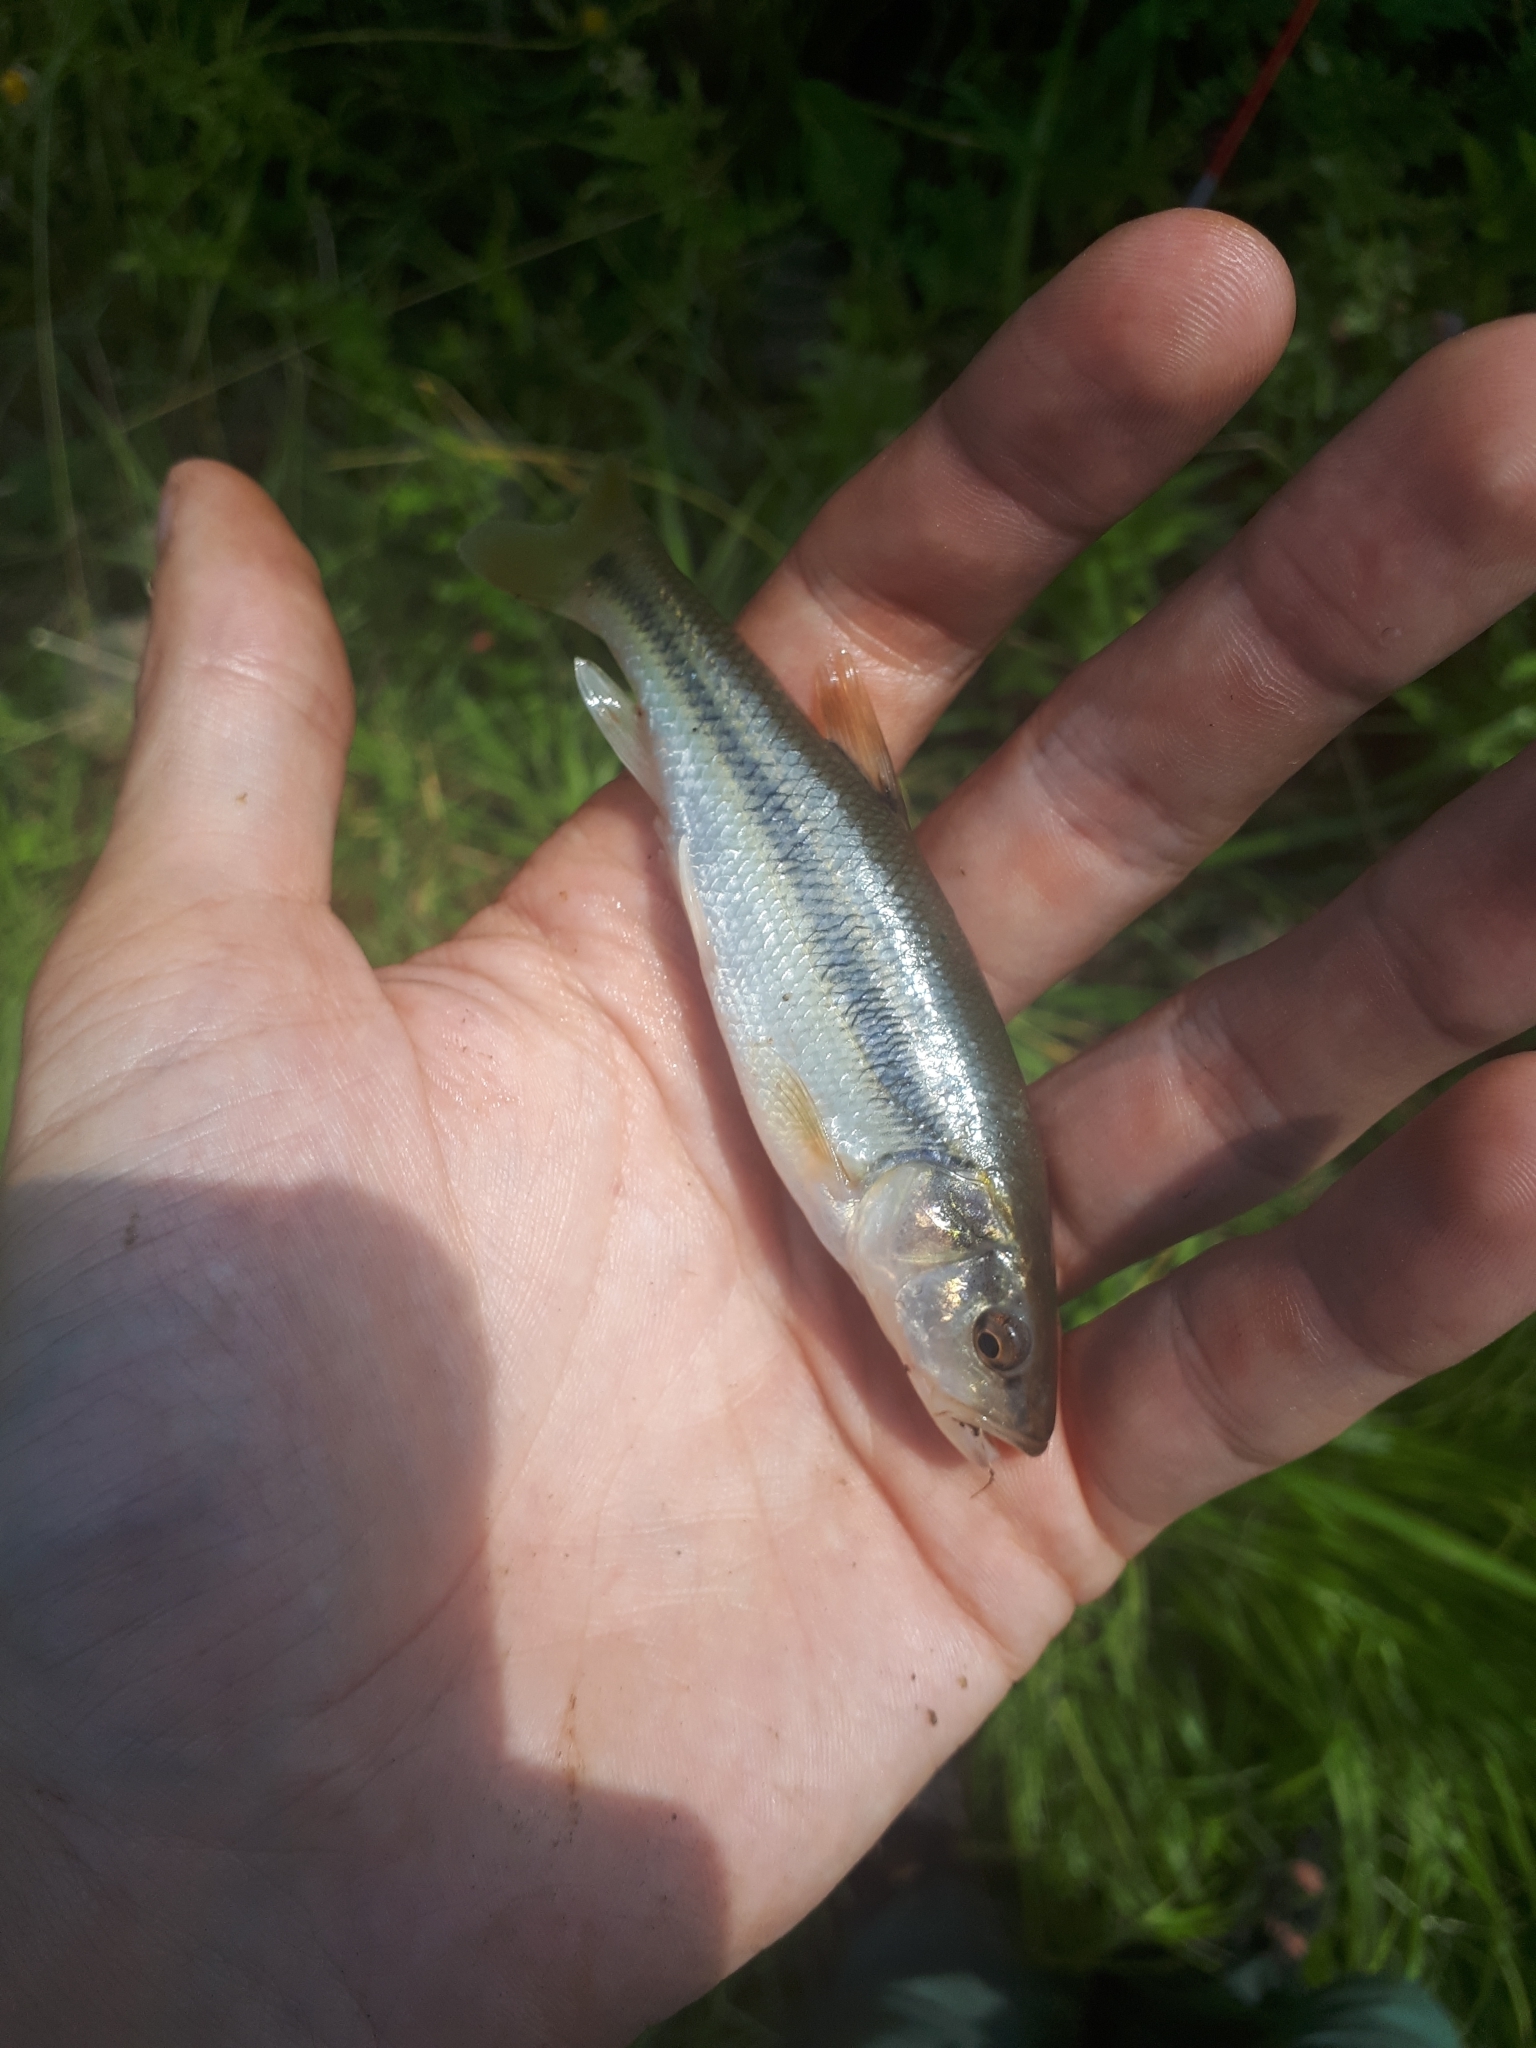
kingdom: Animalia
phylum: Chordata
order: Cypriniformes
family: Cyprinidae
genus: Semotilus
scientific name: Semotilus atromaculatus
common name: Creek chub
